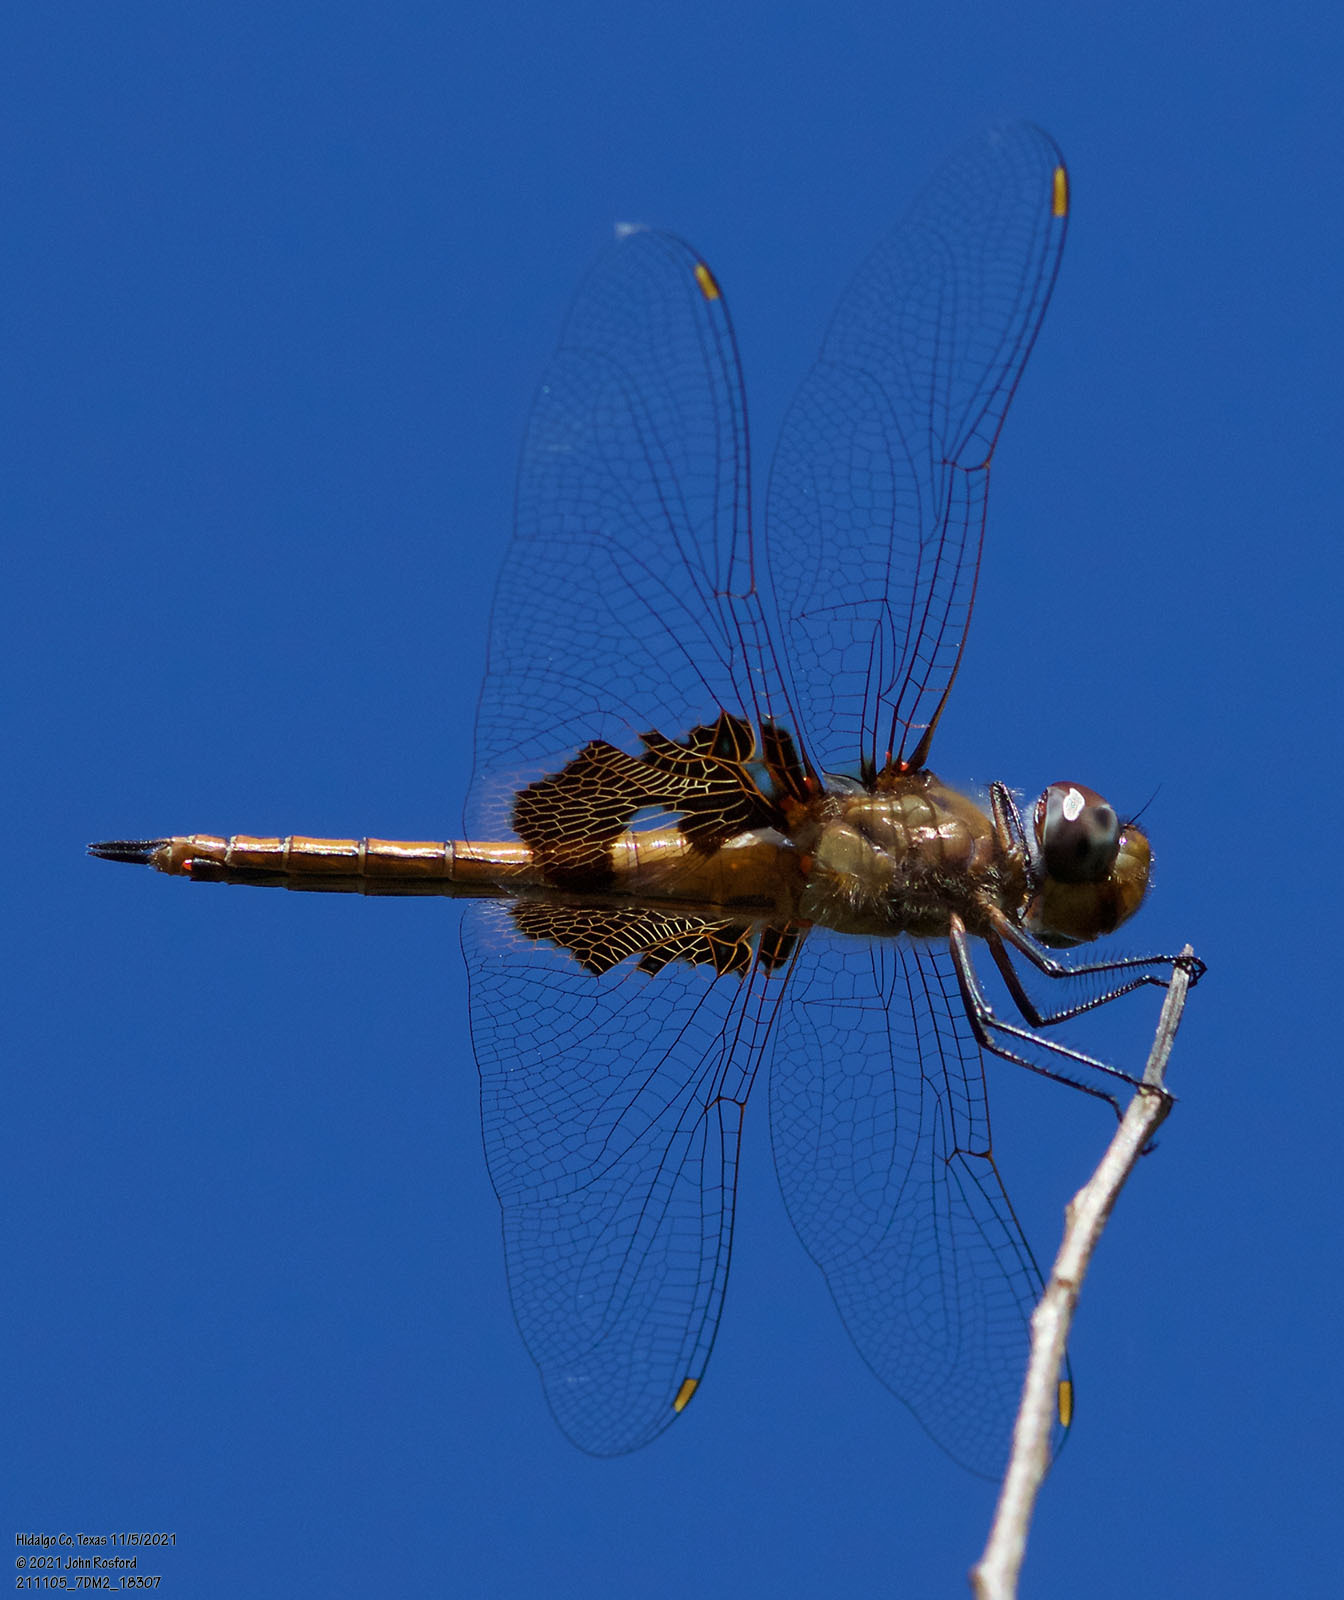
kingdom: Animalia
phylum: Arthropoda
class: Insecta
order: Odonata
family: Libellulidae
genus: Tramea
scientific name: Tramea onusta
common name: Red saddlebags
